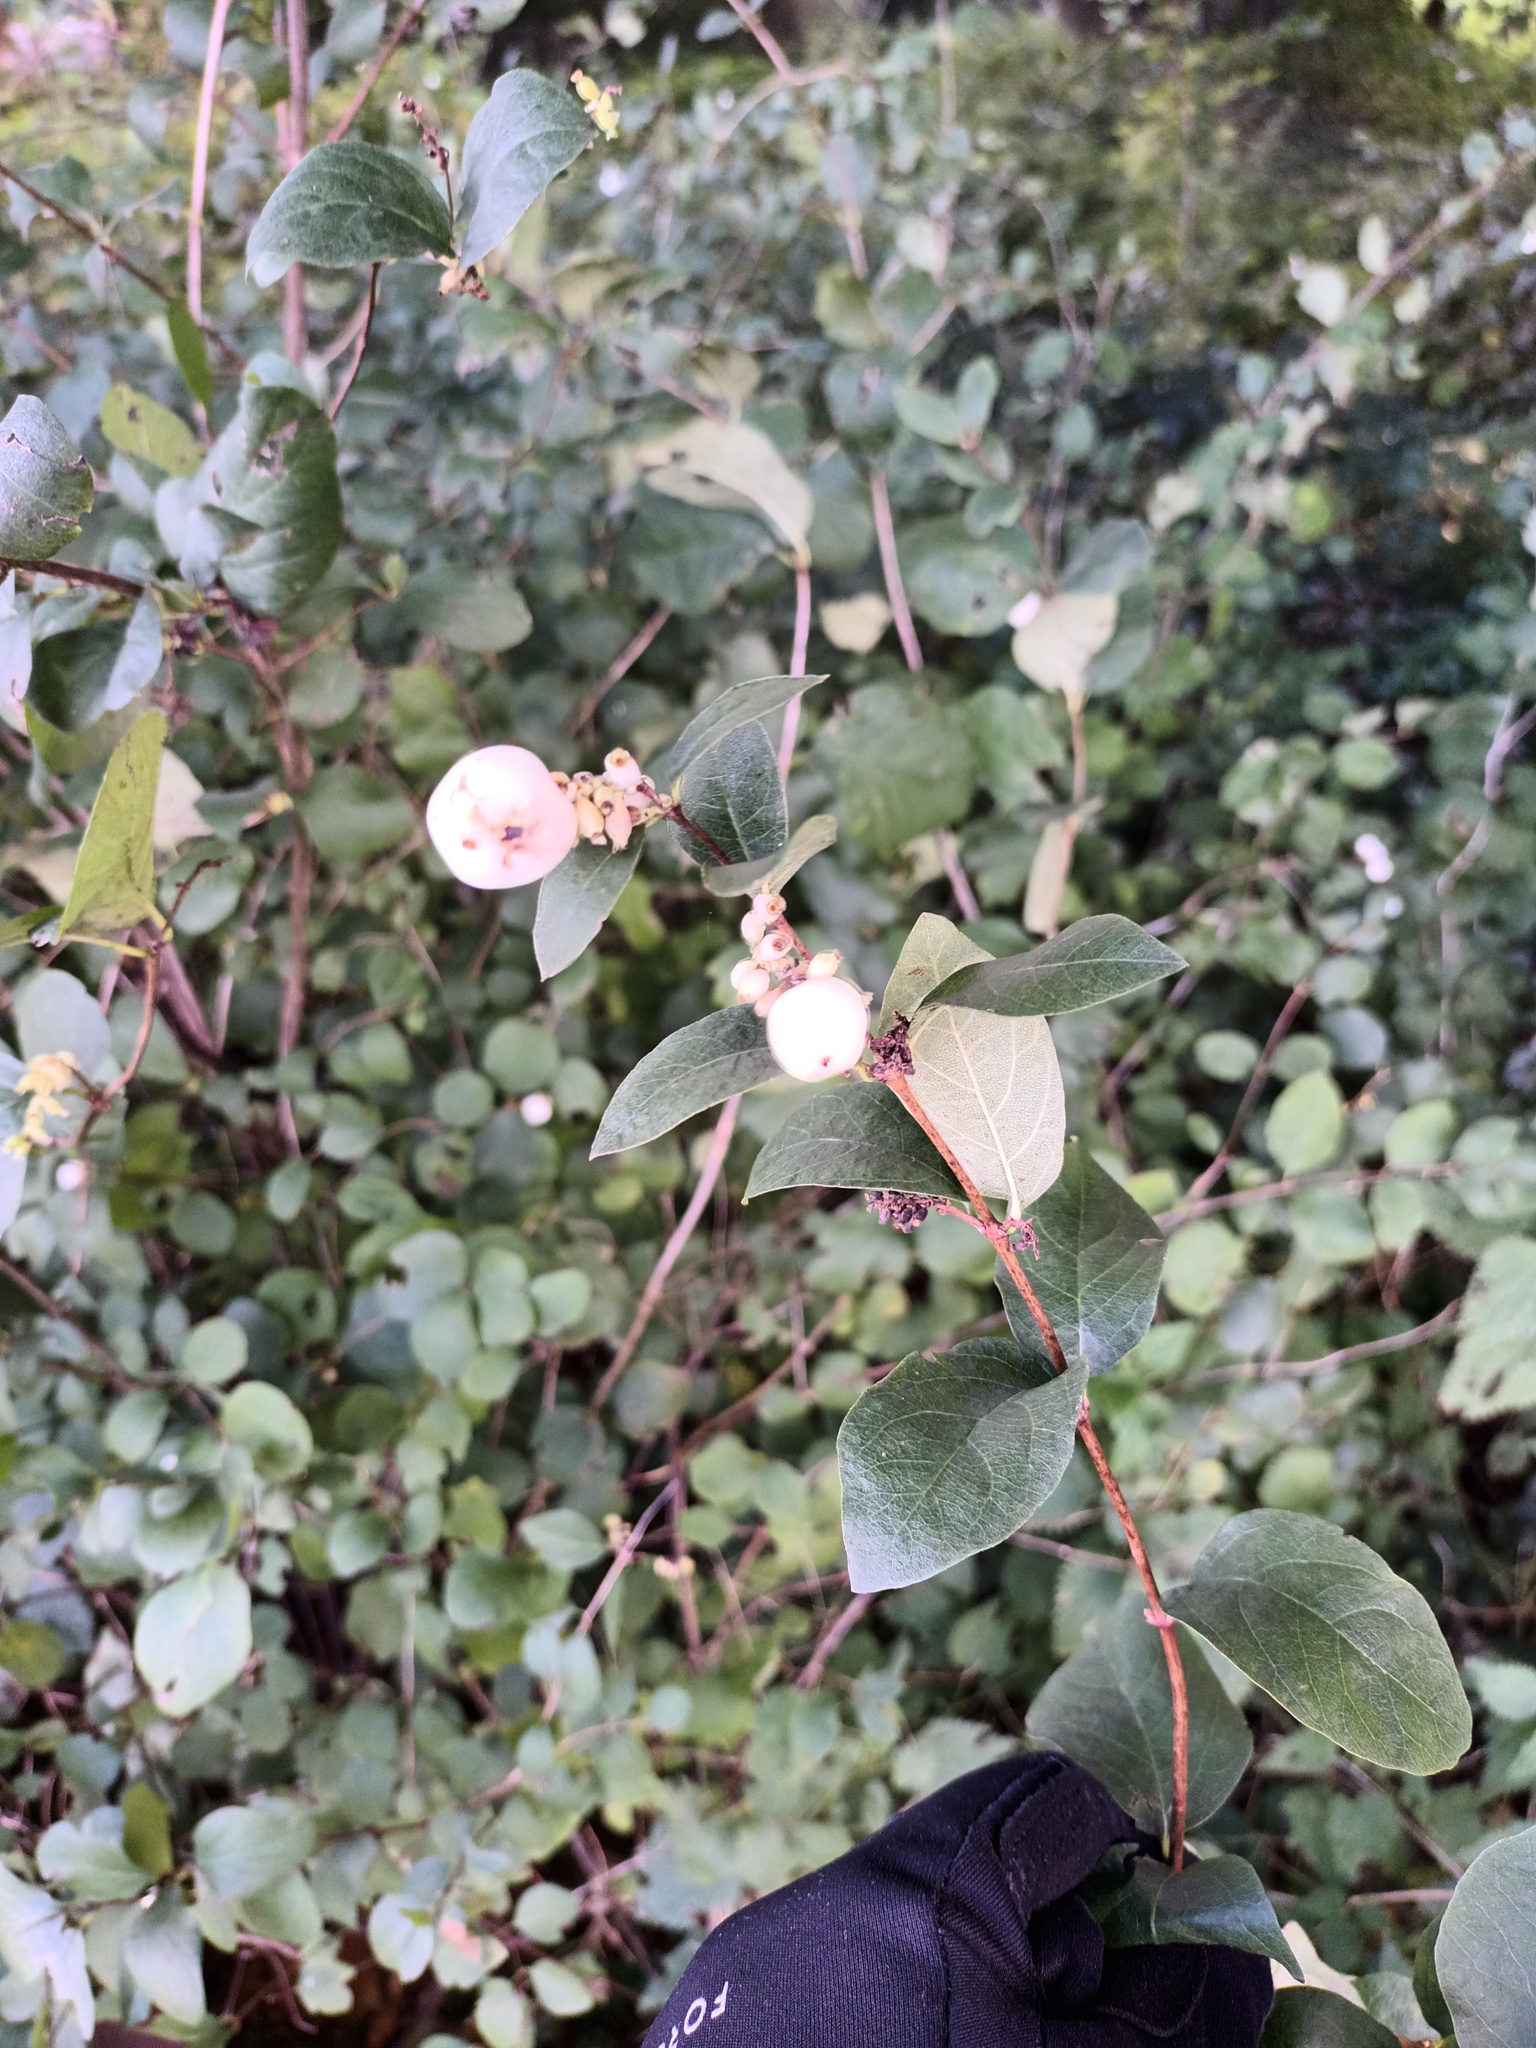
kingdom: Plantae
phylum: Tracheophyta
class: Magnoliopsida
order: Dipsacales
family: Caprifoliaceae
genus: Symphoricarpos
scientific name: Symphoricarpos albus
